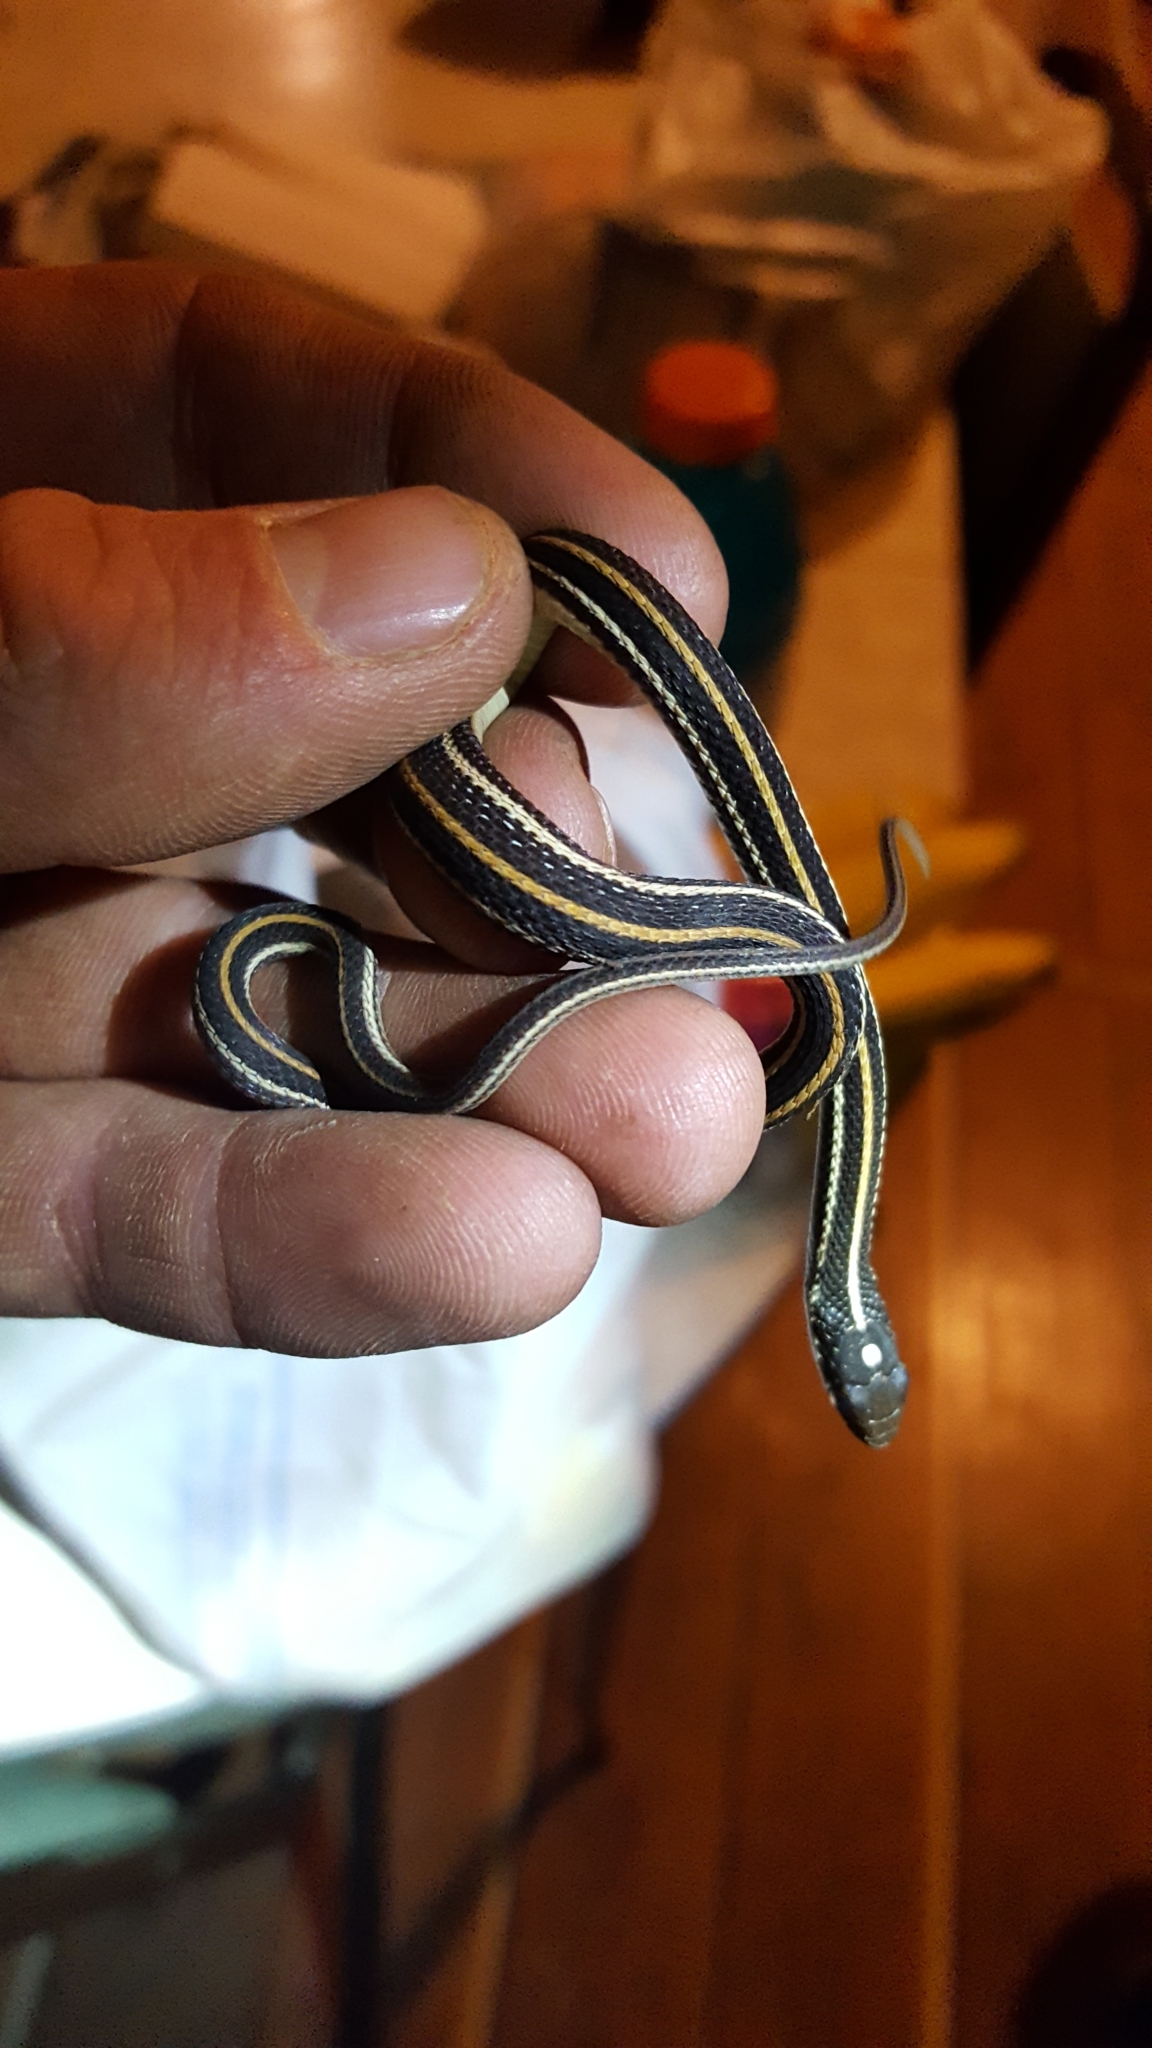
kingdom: Animalia
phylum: Chordata
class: Squamata
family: Colubridae
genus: Thamnophis
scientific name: Thamnophis proximus
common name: Western ribbon snake
